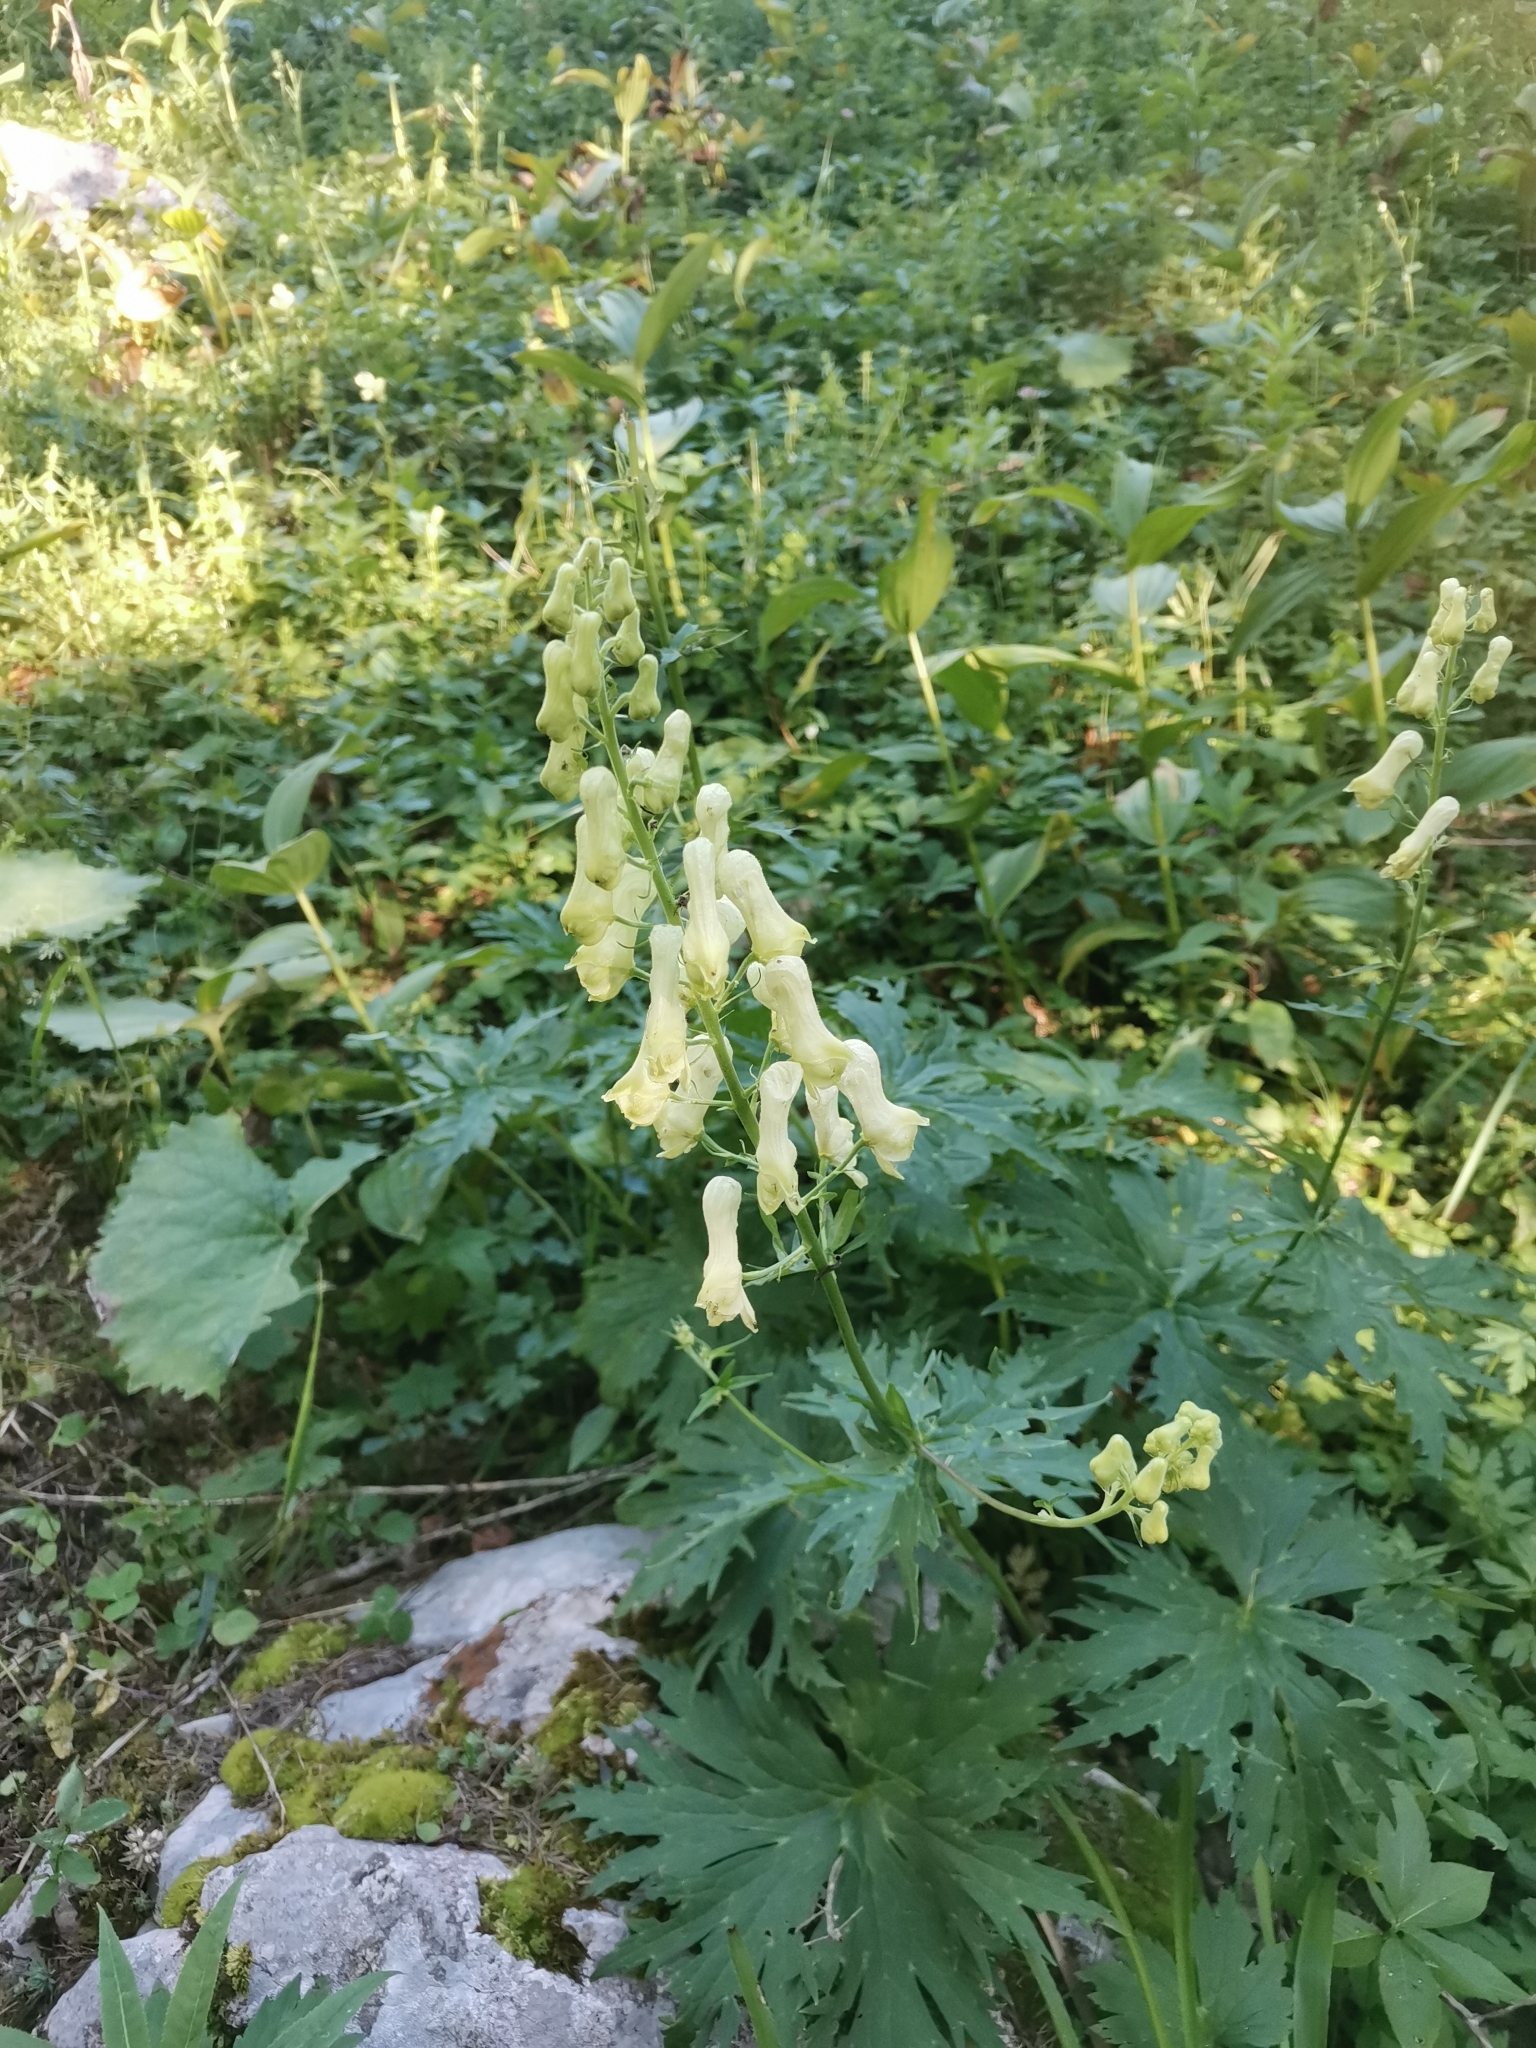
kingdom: Plantae
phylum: Tracheophyta
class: Magnoliopsida
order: Ranunculales
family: Ranunculaceae
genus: Aconitum
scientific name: Aconitum lamarckii
